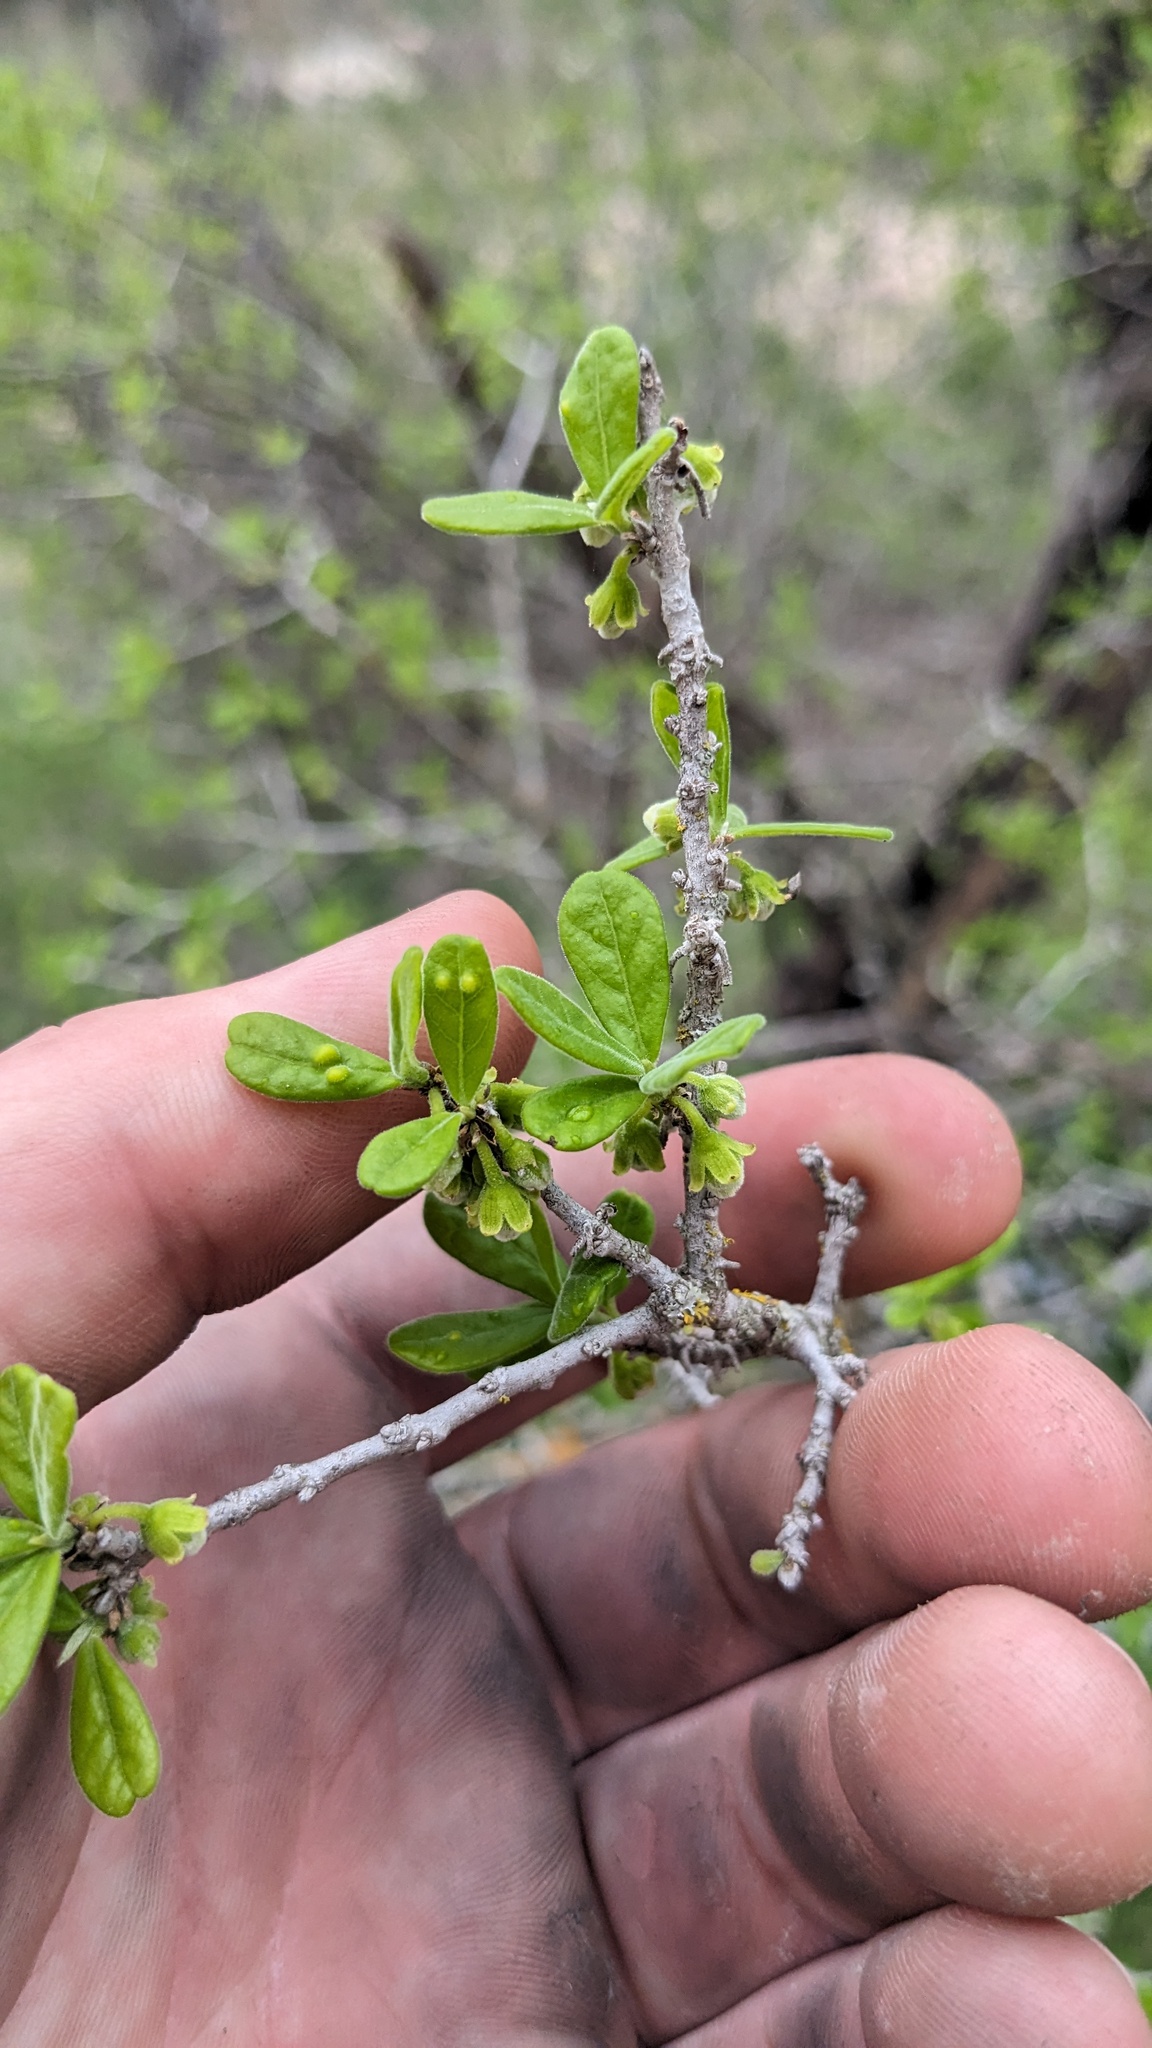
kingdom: Plantae
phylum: Tracheophyta
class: Magnoliopsida
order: Ericales
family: Ebenaceae
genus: Diospyros
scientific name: Diospyros texana
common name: Texas persimmon
